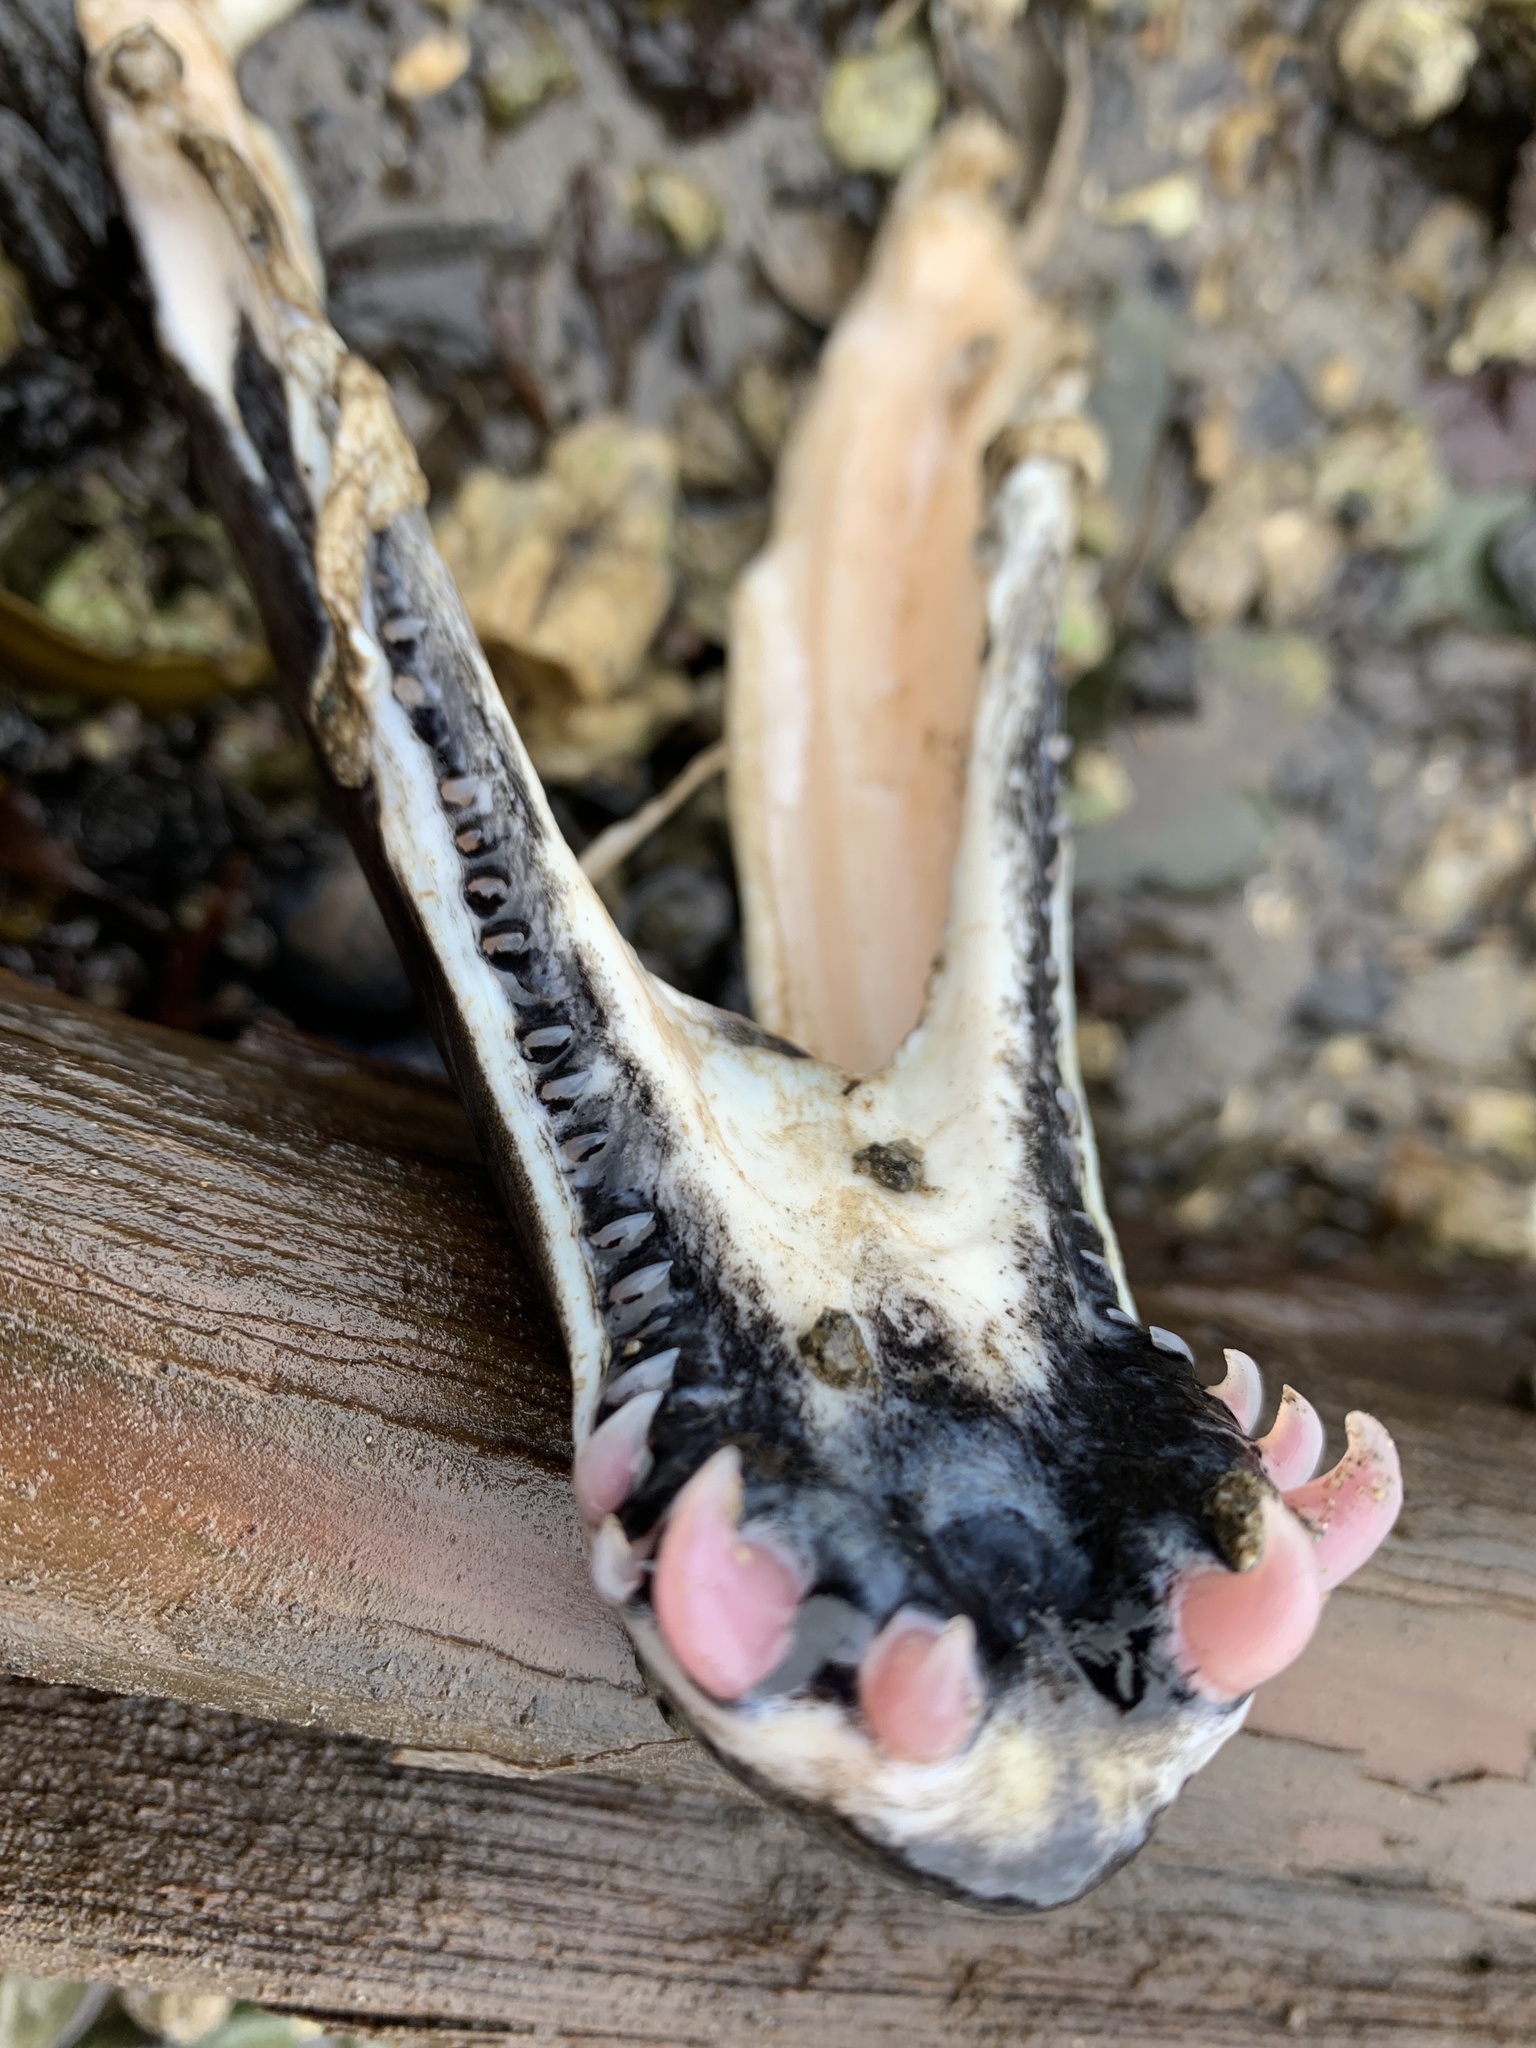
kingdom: Animalia
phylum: Chordata
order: Salmoniformes
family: Salmonidae
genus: Oncorhynchus
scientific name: Oncorhynchus keta
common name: Chum salmon
